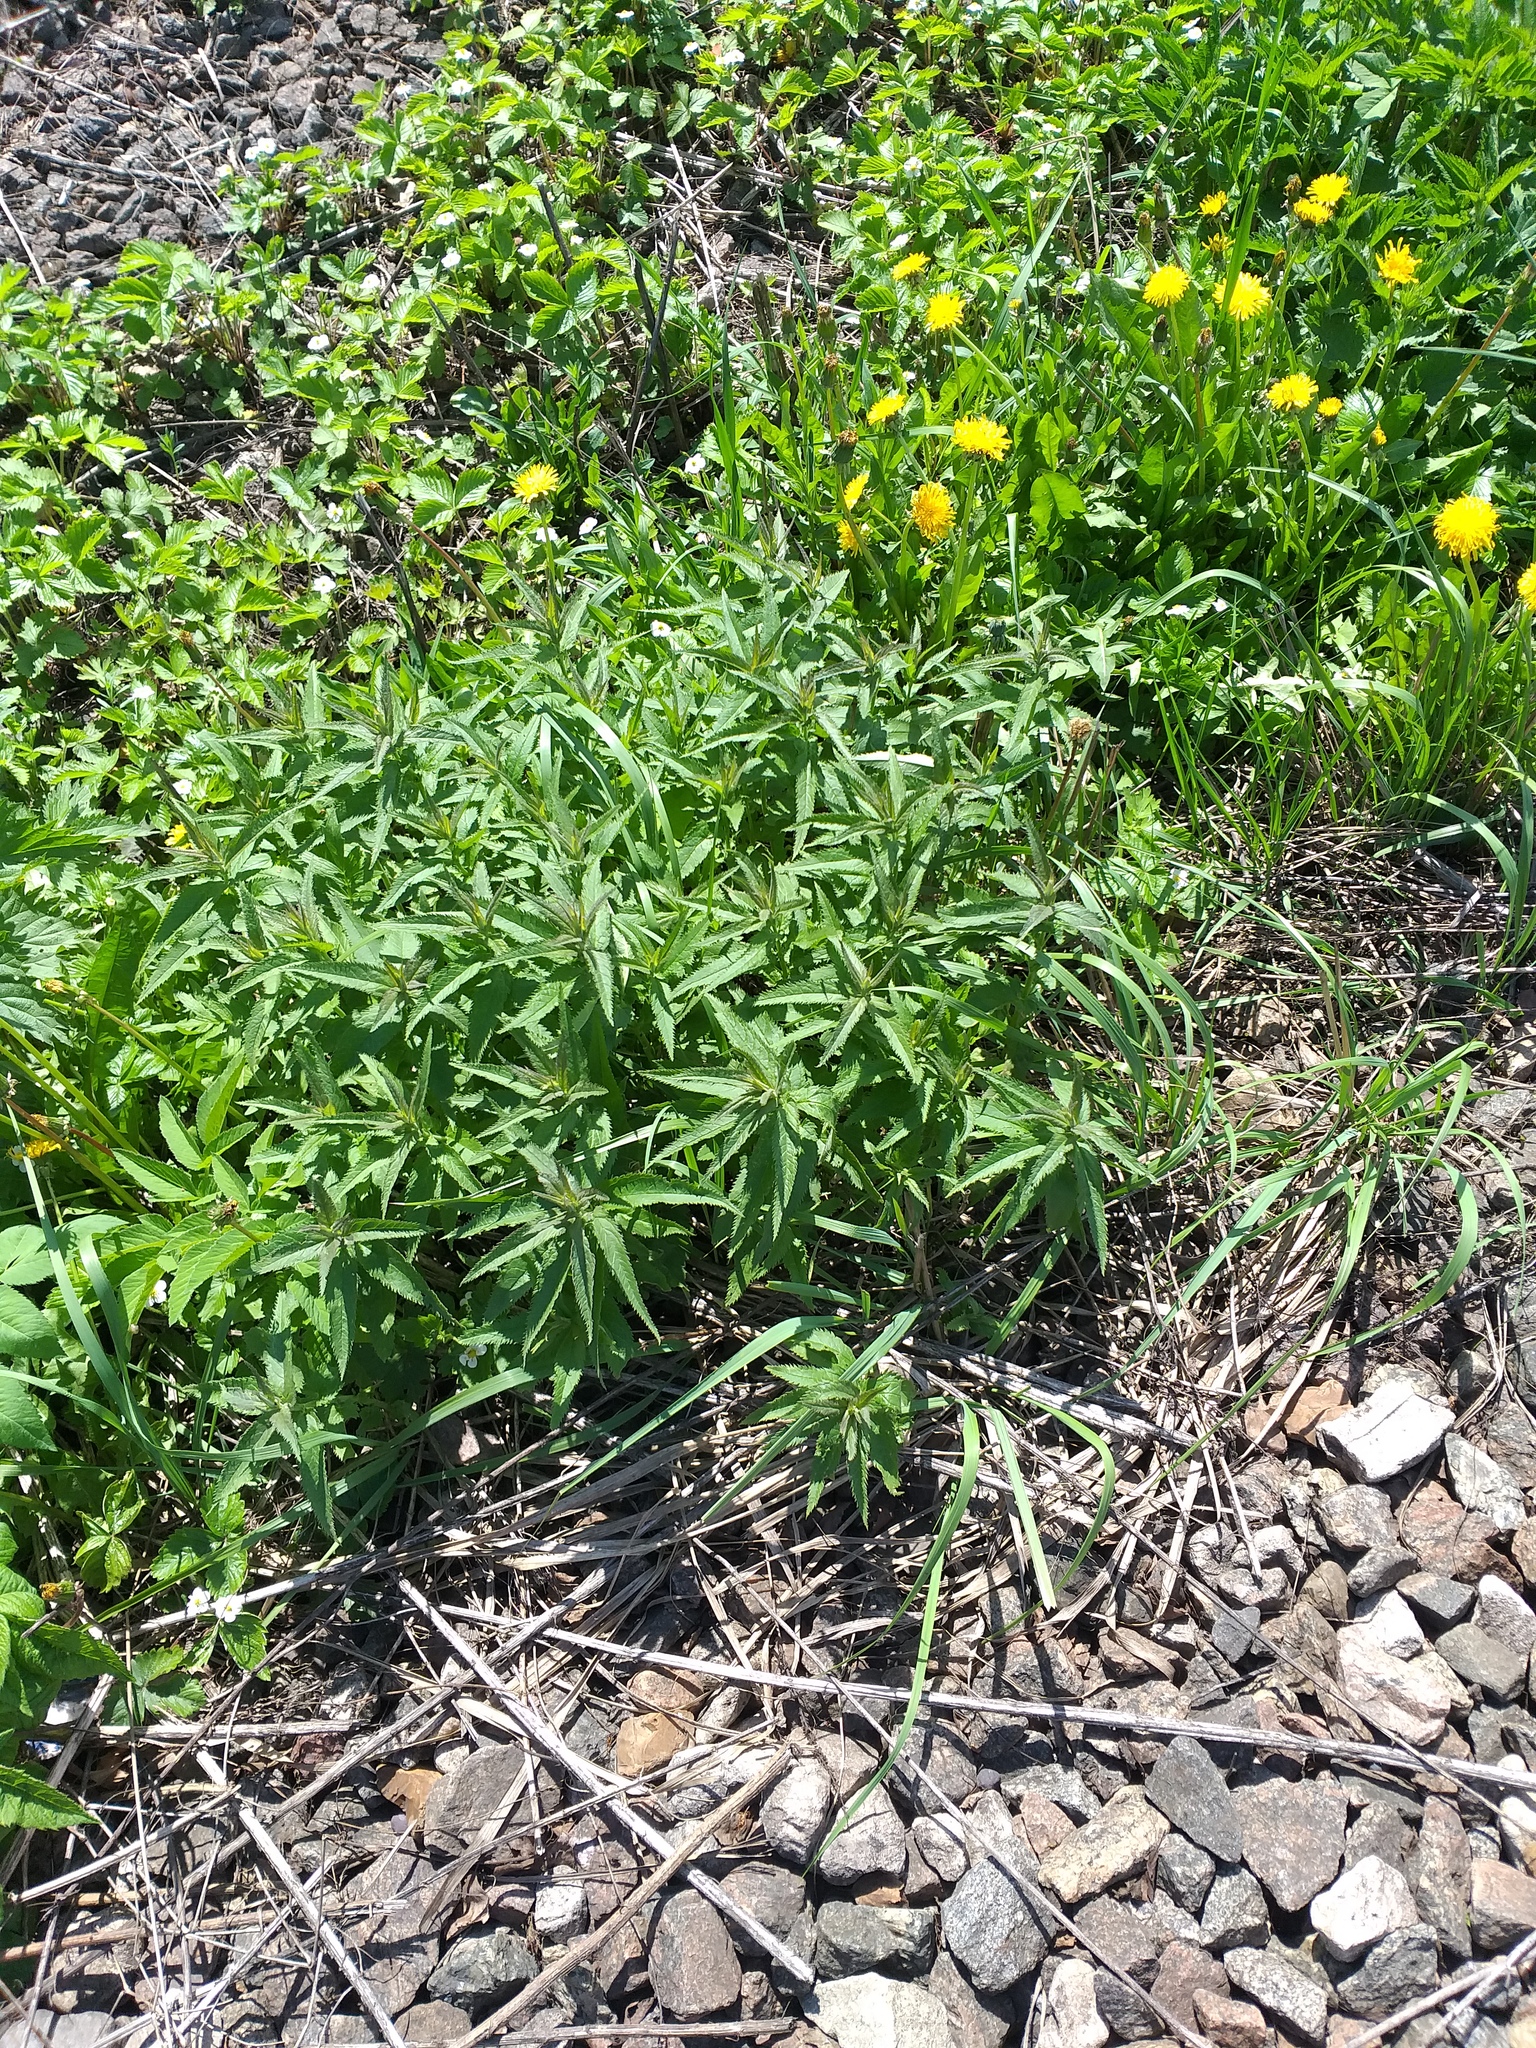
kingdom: Plantae
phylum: Tracheophyta
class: Magnoliopsida
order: Lamiales
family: Plantaginaceae
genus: Veronica
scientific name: Veronica longifolia
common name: Garden speedwell
